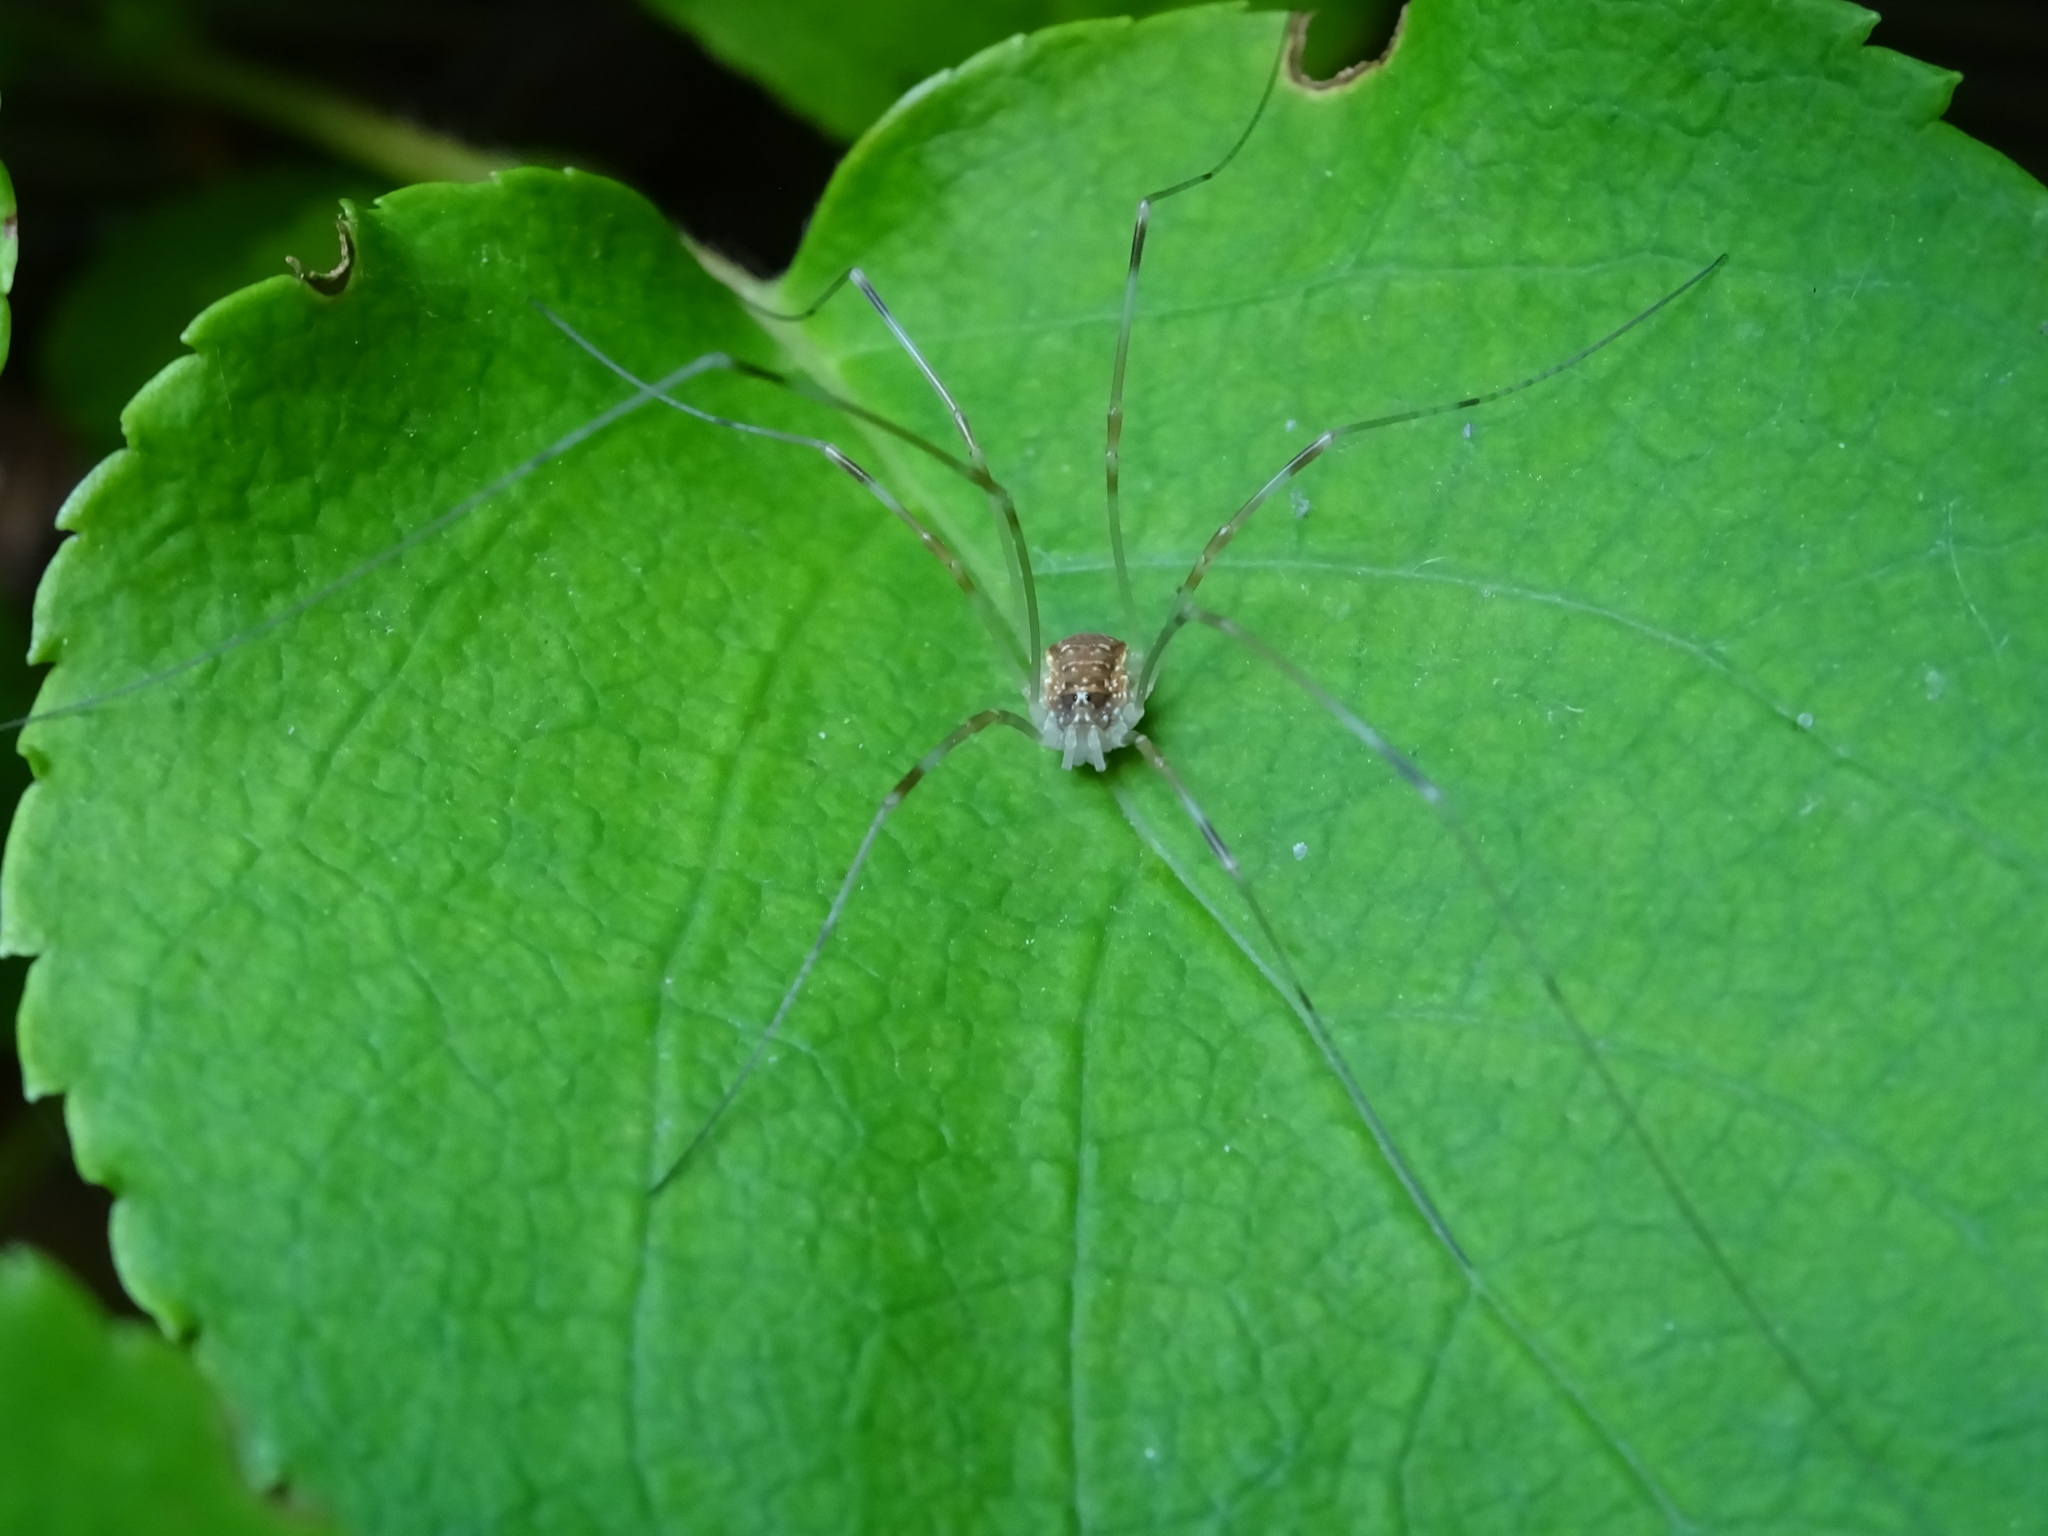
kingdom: Animalia
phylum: Arthropoda
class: Arachnida
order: Opiliones
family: Phalangiidae
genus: Opilio
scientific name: Opilio canestrinii
